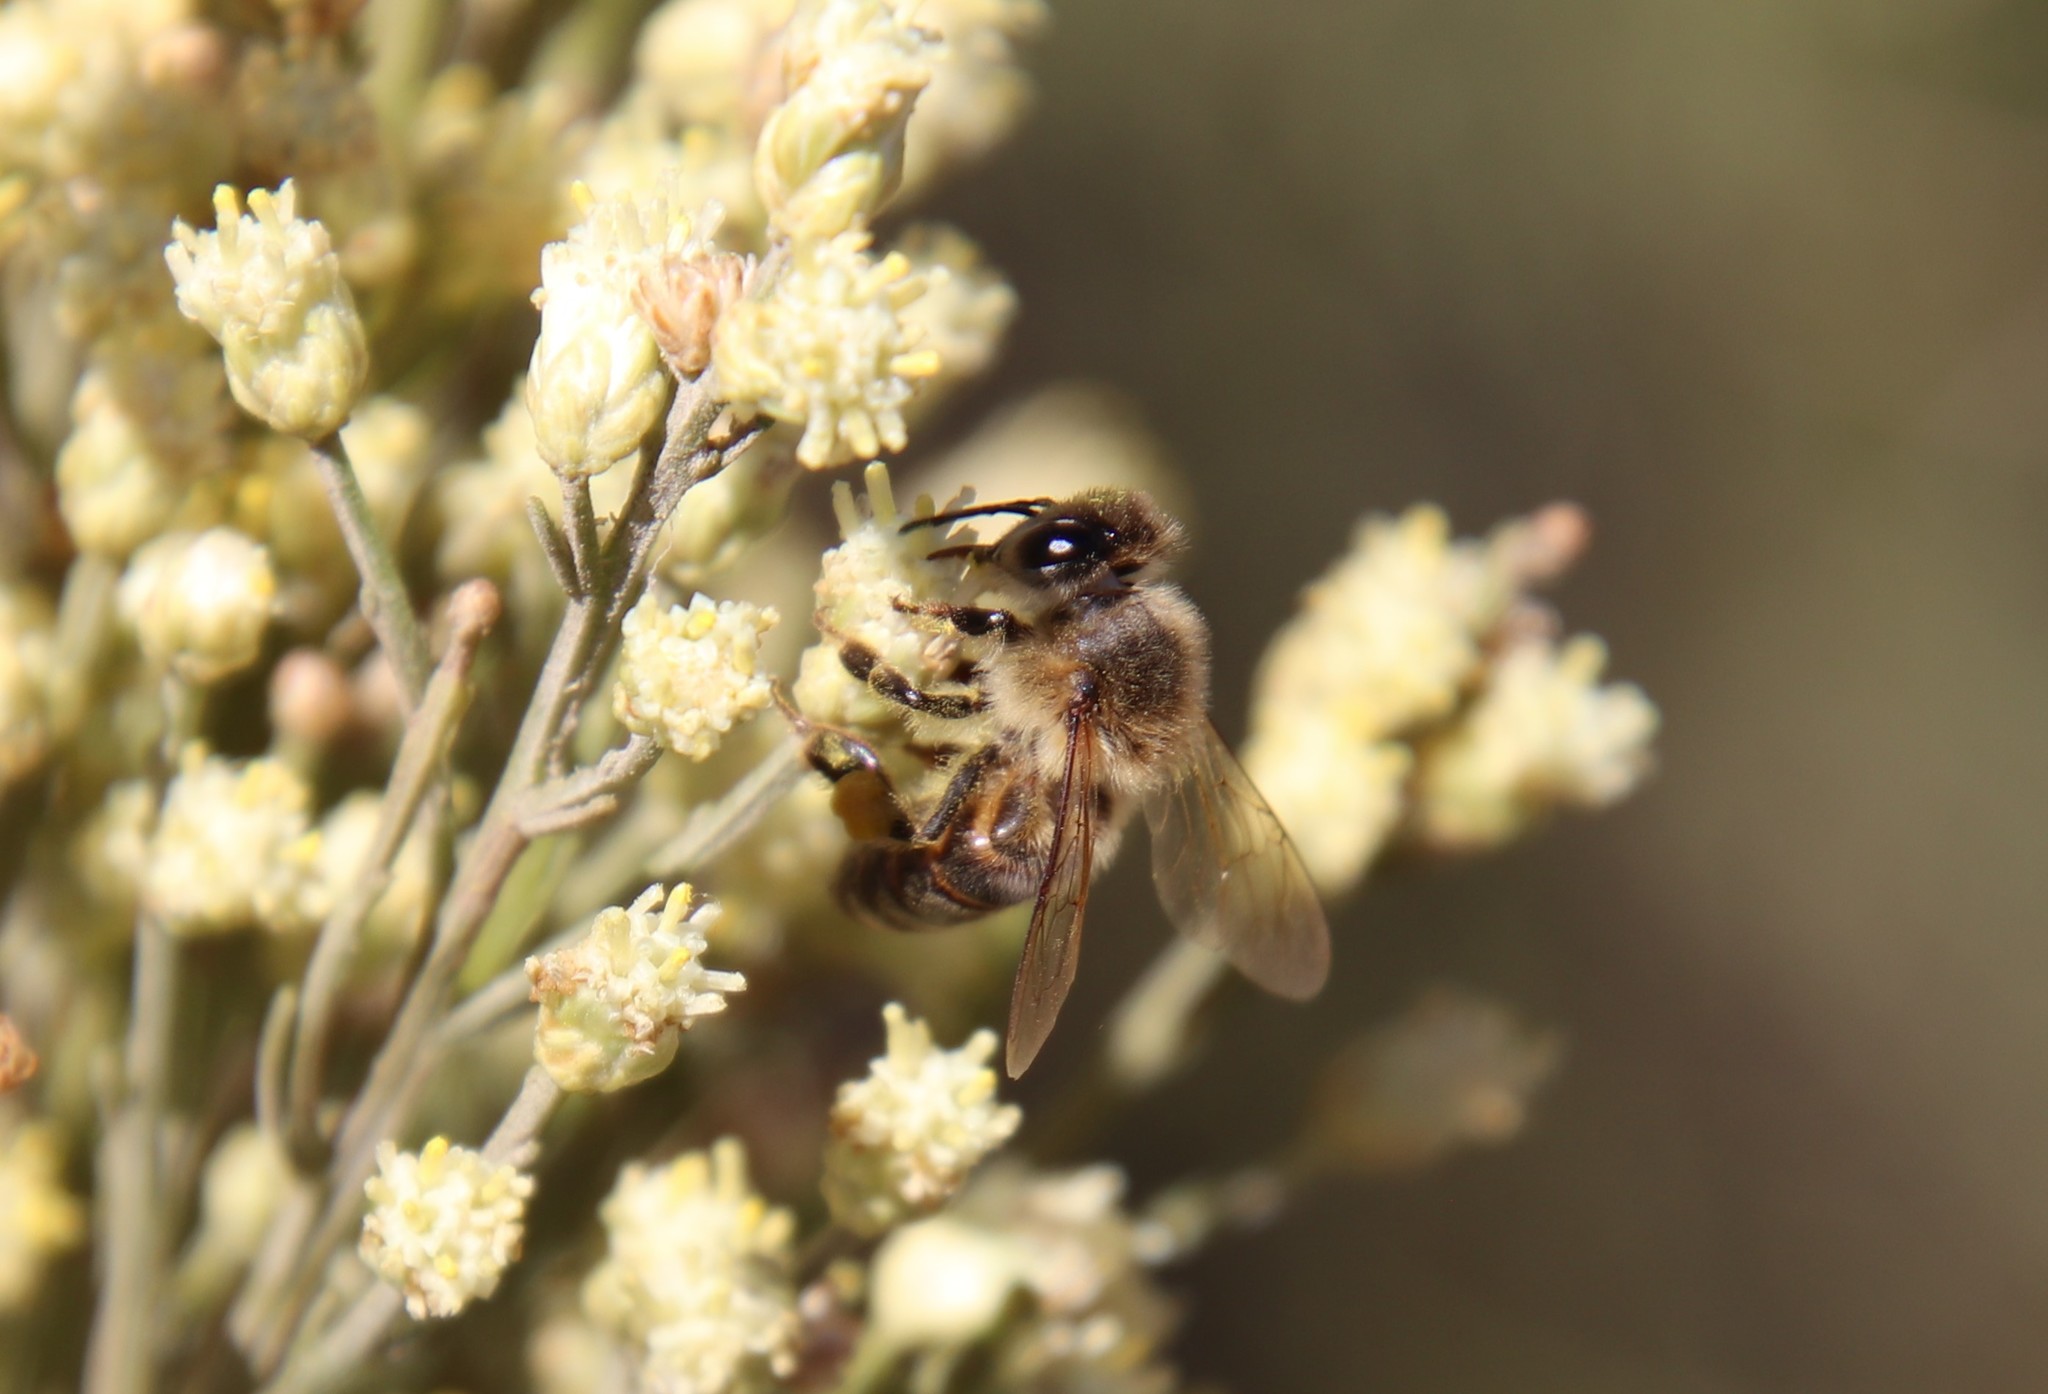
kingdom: Animalia
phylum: Arthropoda
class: Insecta
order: Hymenoptera
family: Apidae
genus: Apis
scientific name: Apis mellifera
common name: Honey bee
